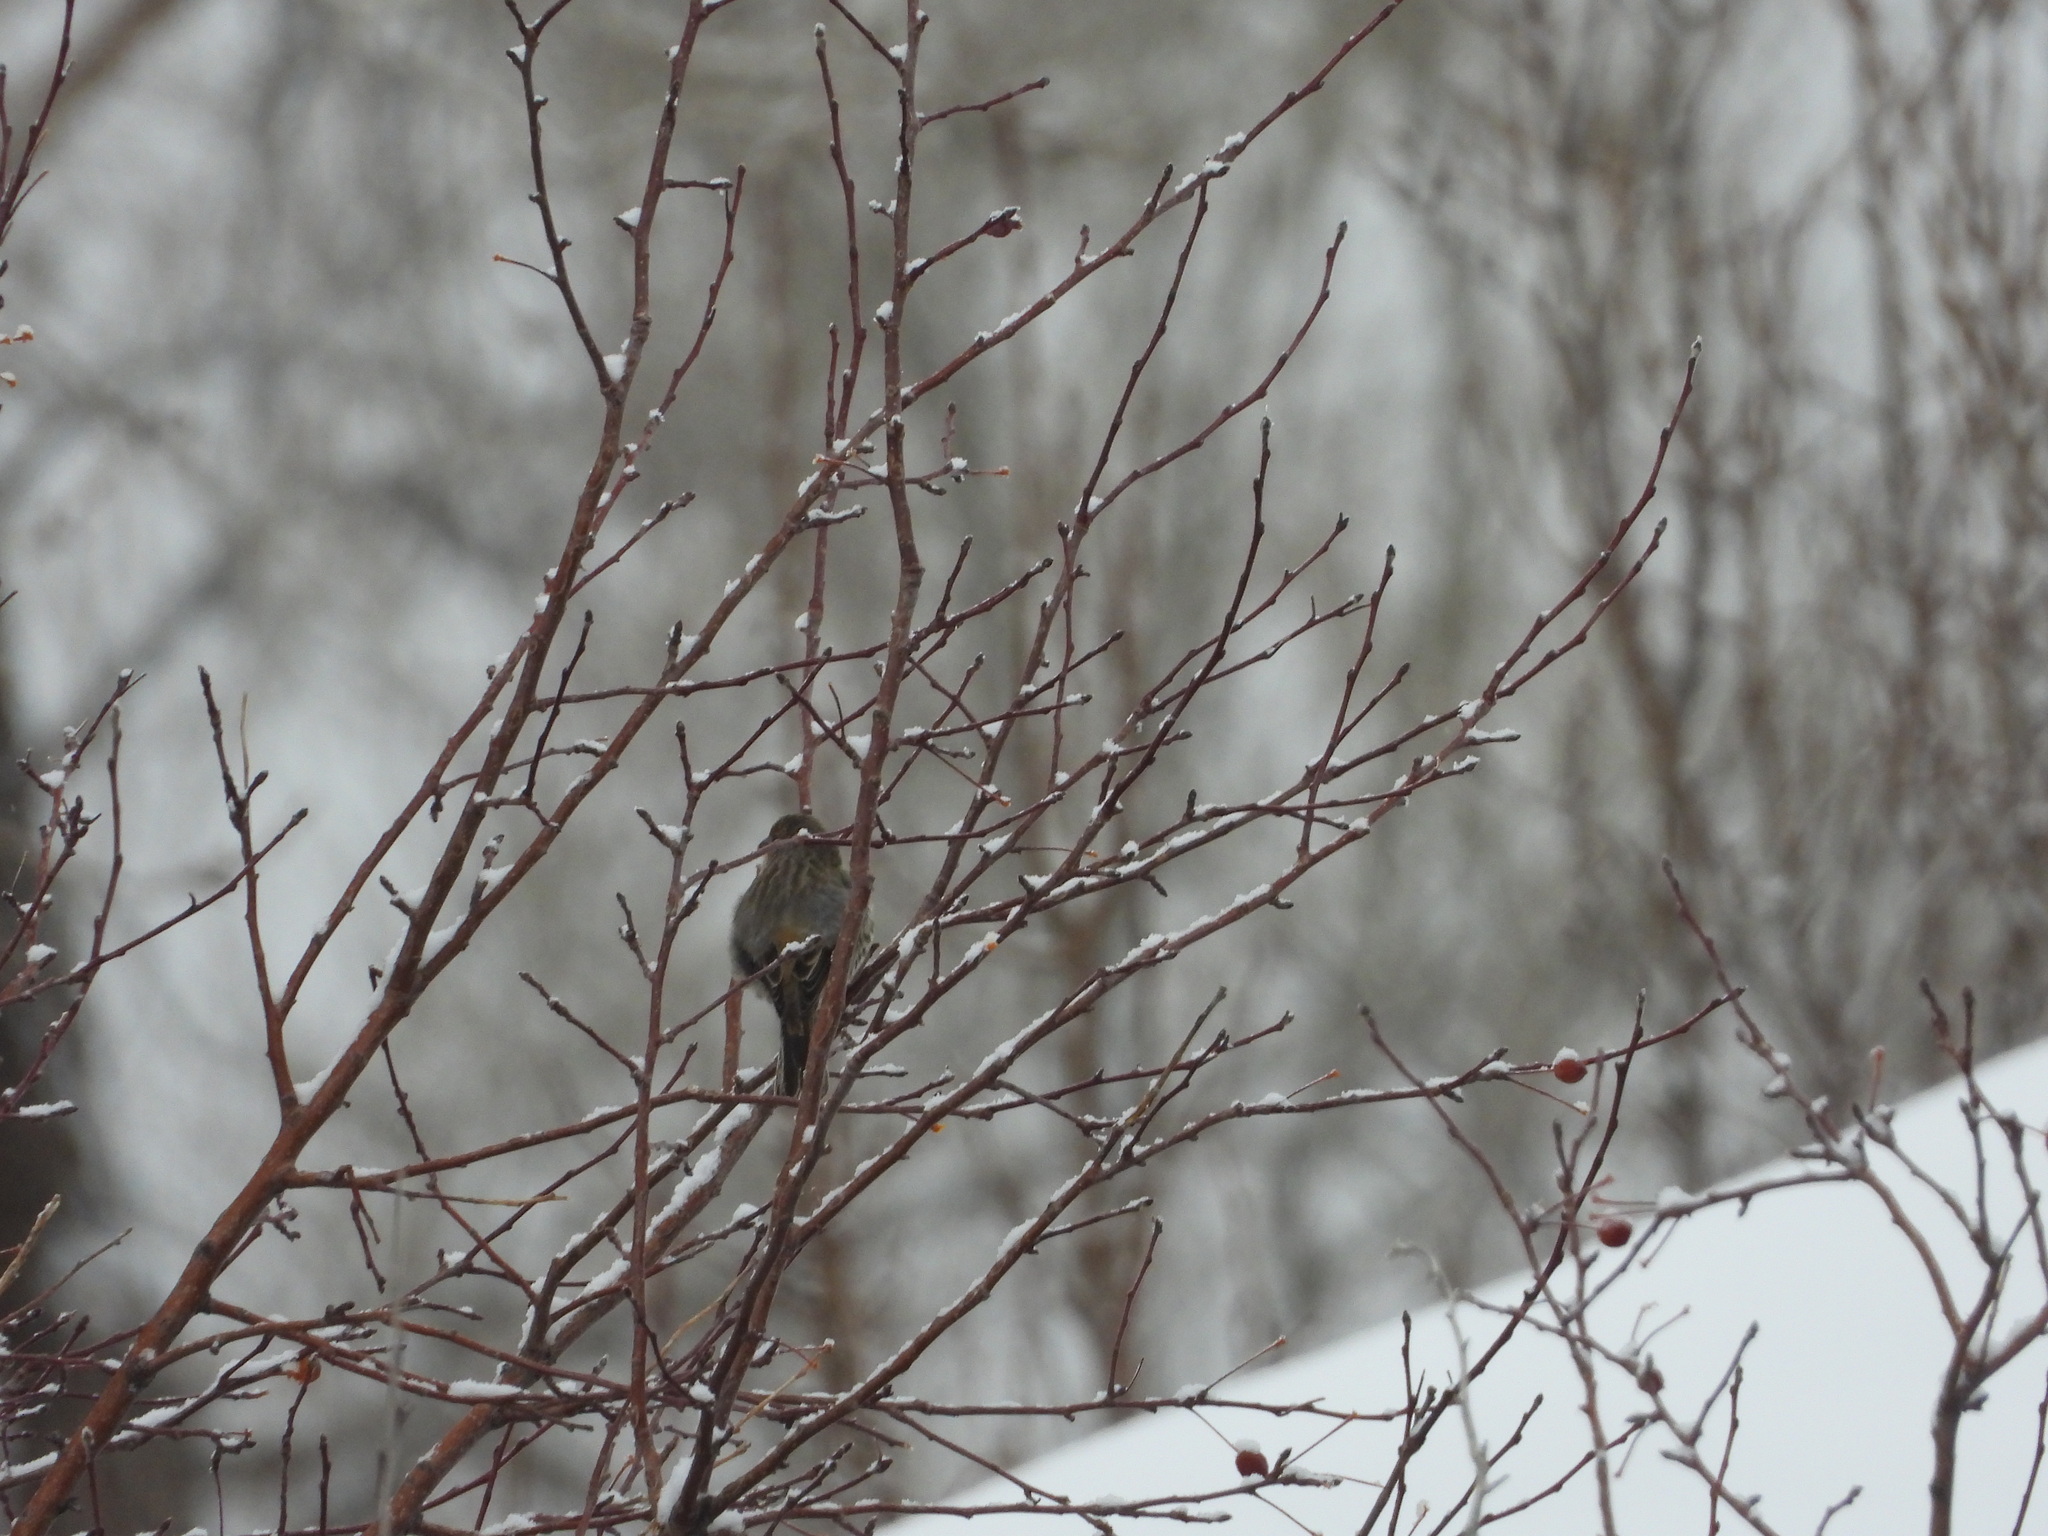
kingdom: Animalia
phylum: Chordata
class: Aves
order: Passeriformes
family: Fringillidae
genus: Haemorhous
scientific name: Haemorhous mexicanus
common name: House finch
